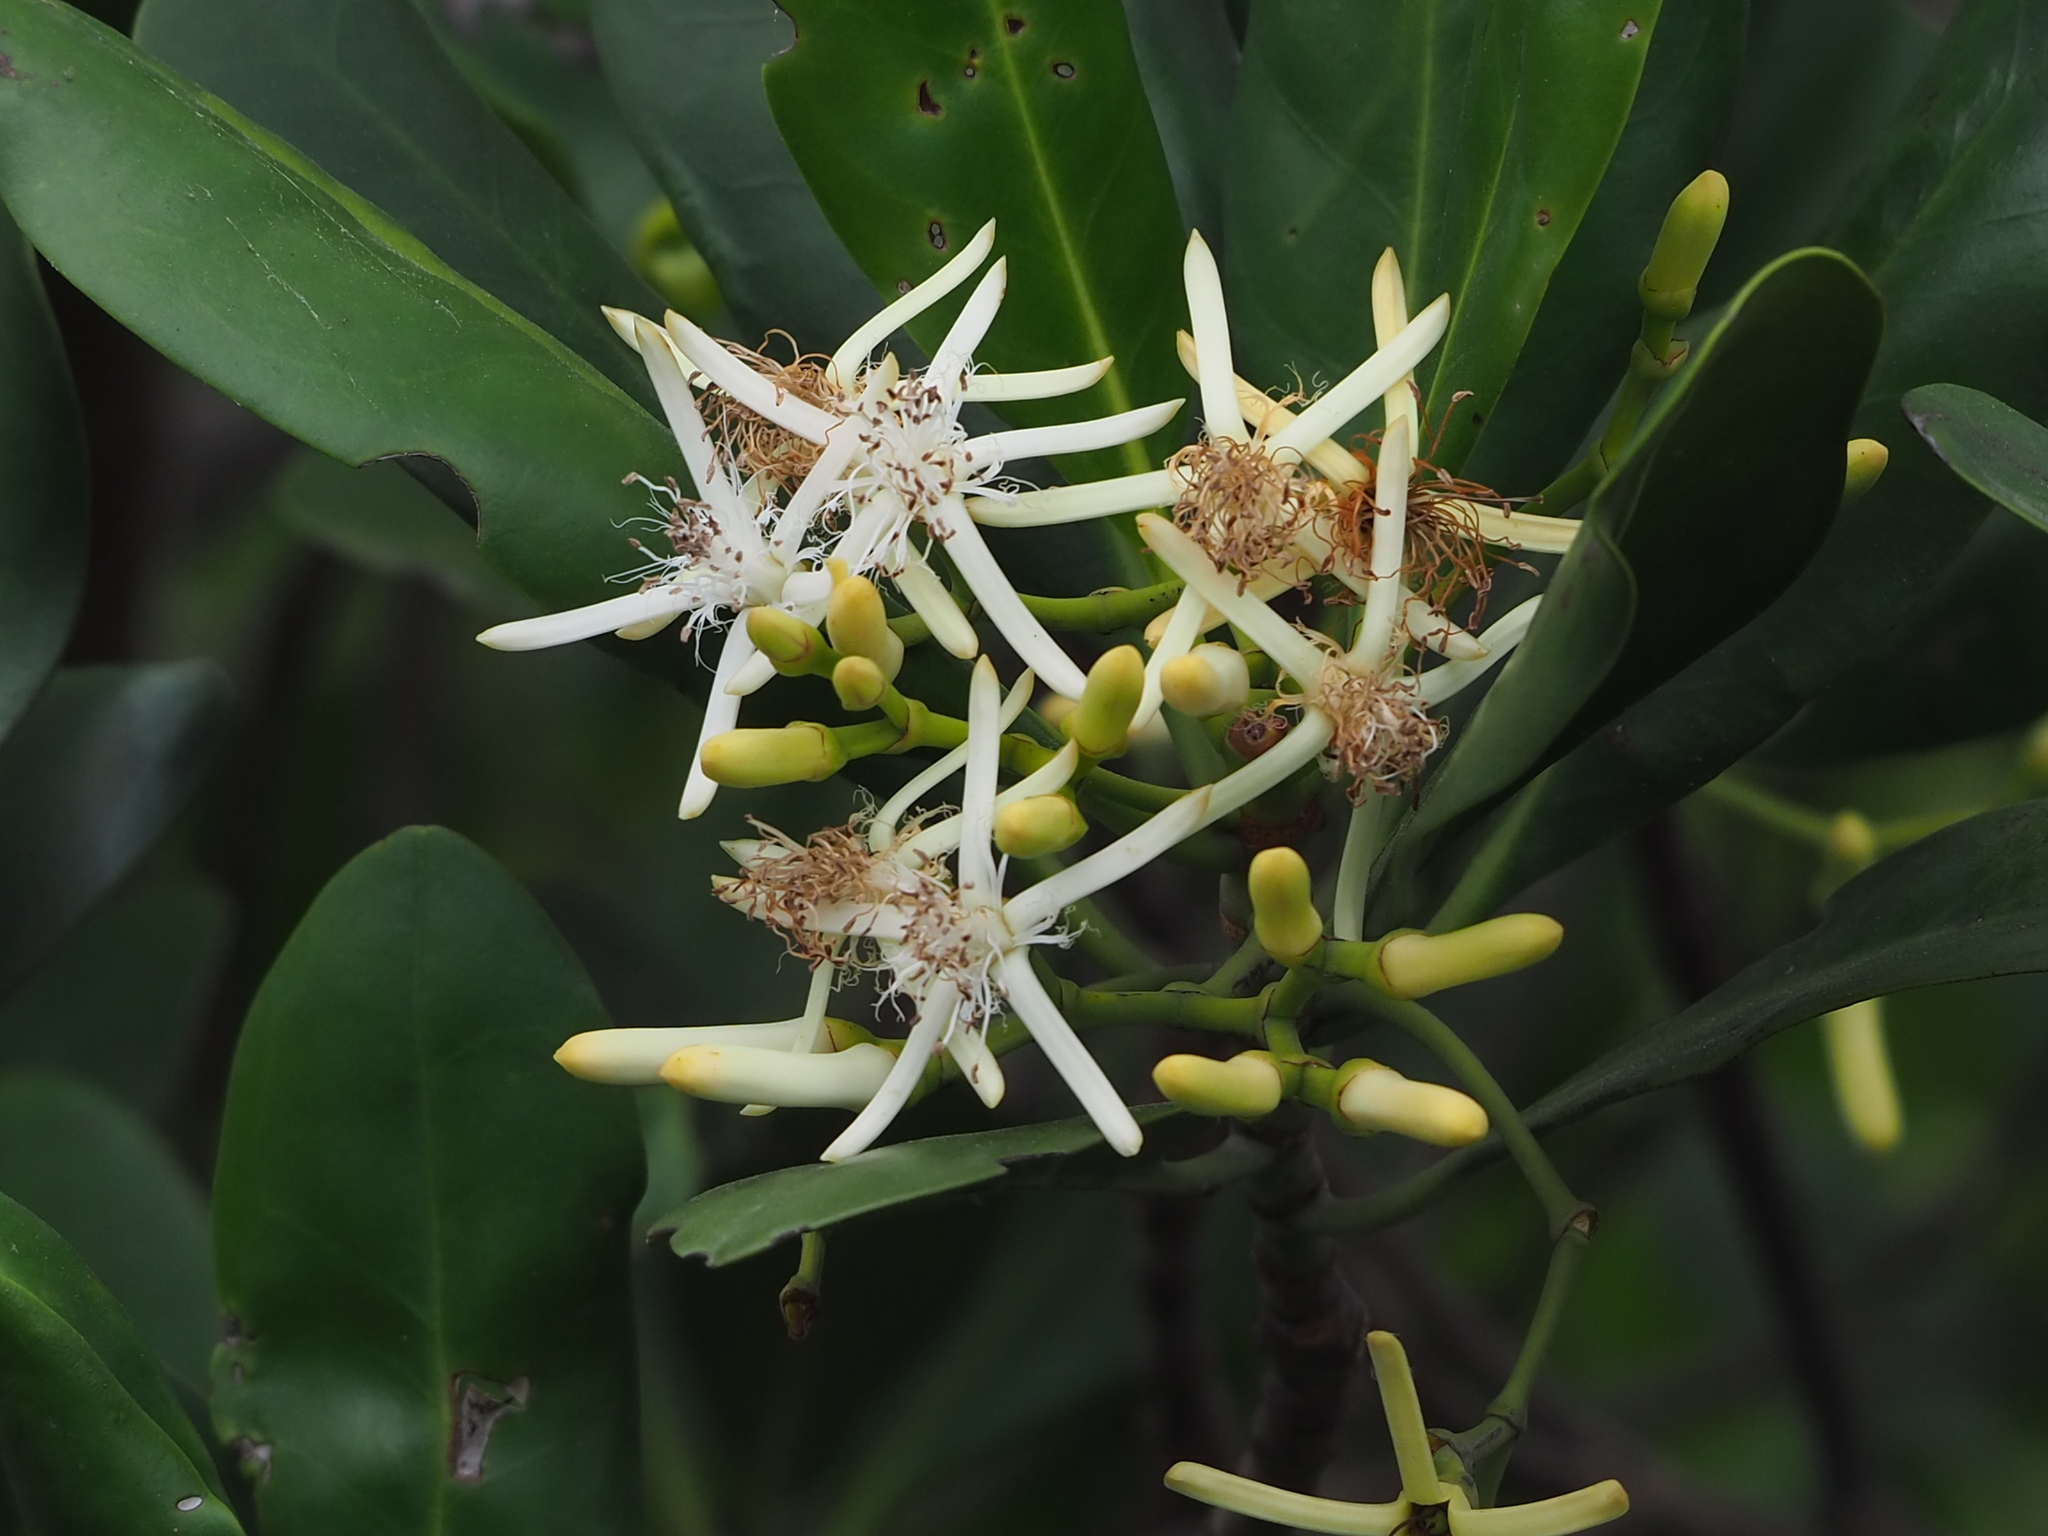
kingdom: Plantae
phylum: Tracheophyta
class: Magnoliopsida
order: Malpighiales
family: Rhizophoraceae
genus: Kandelia
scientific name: Kandelia obovata
